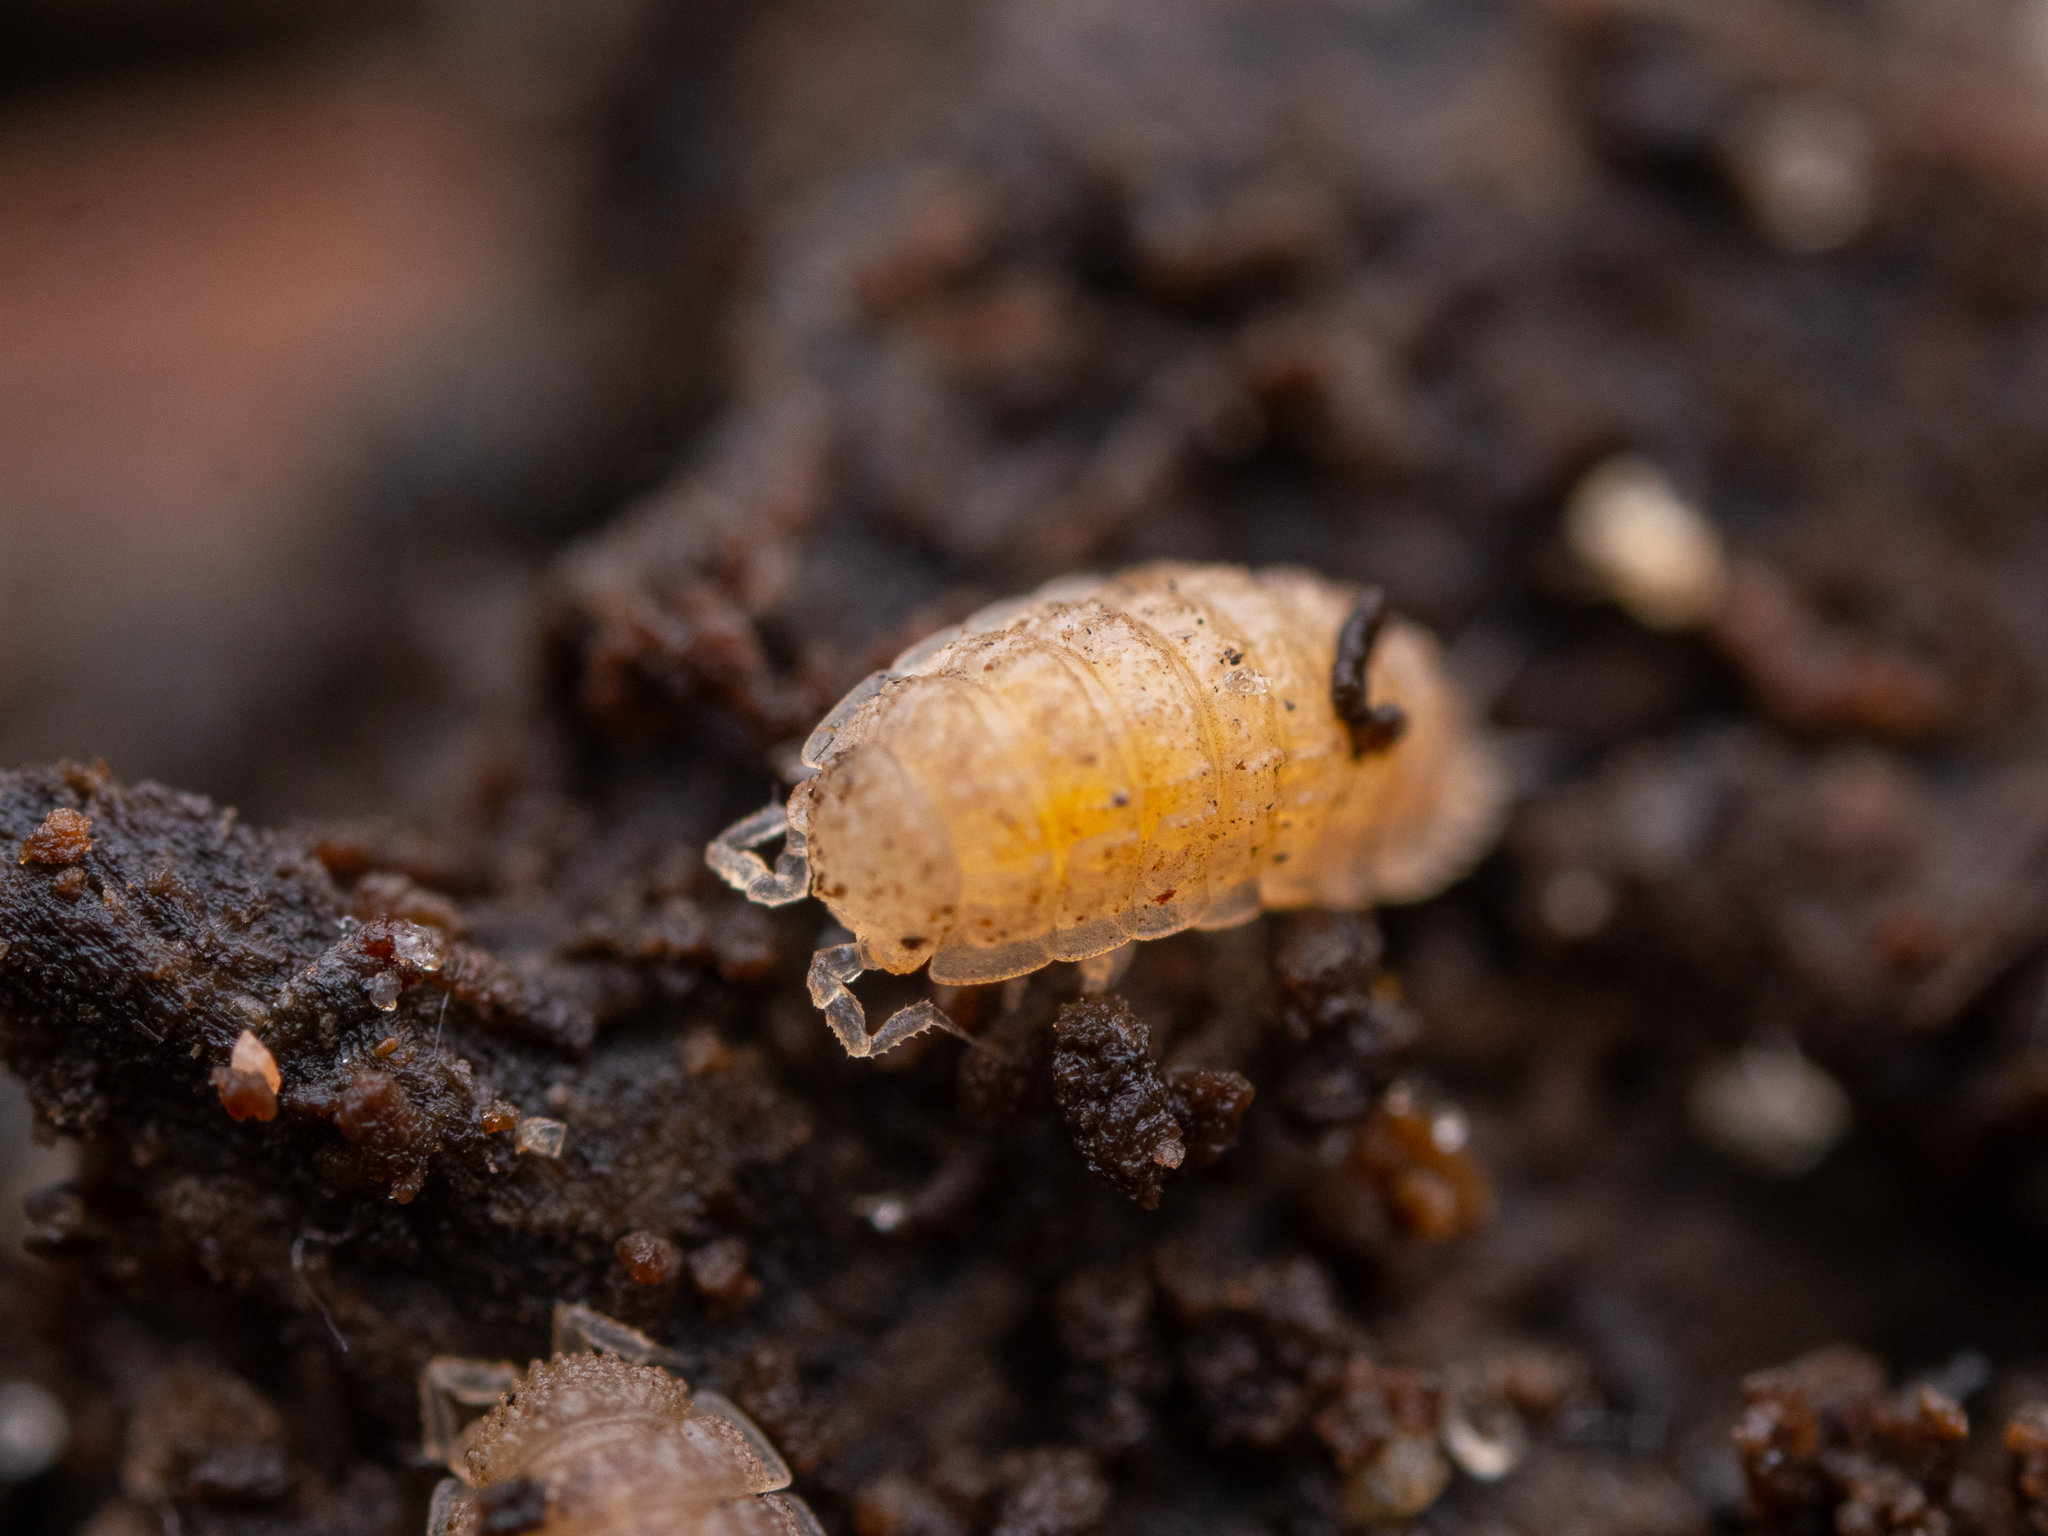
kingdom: Animalia
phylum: Arthropoda
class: Malacostraca
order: Isopoda
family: Trichoniscidae
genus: Haplophthalmus
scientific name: Haplophthalmus danicus
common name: Pillbug
